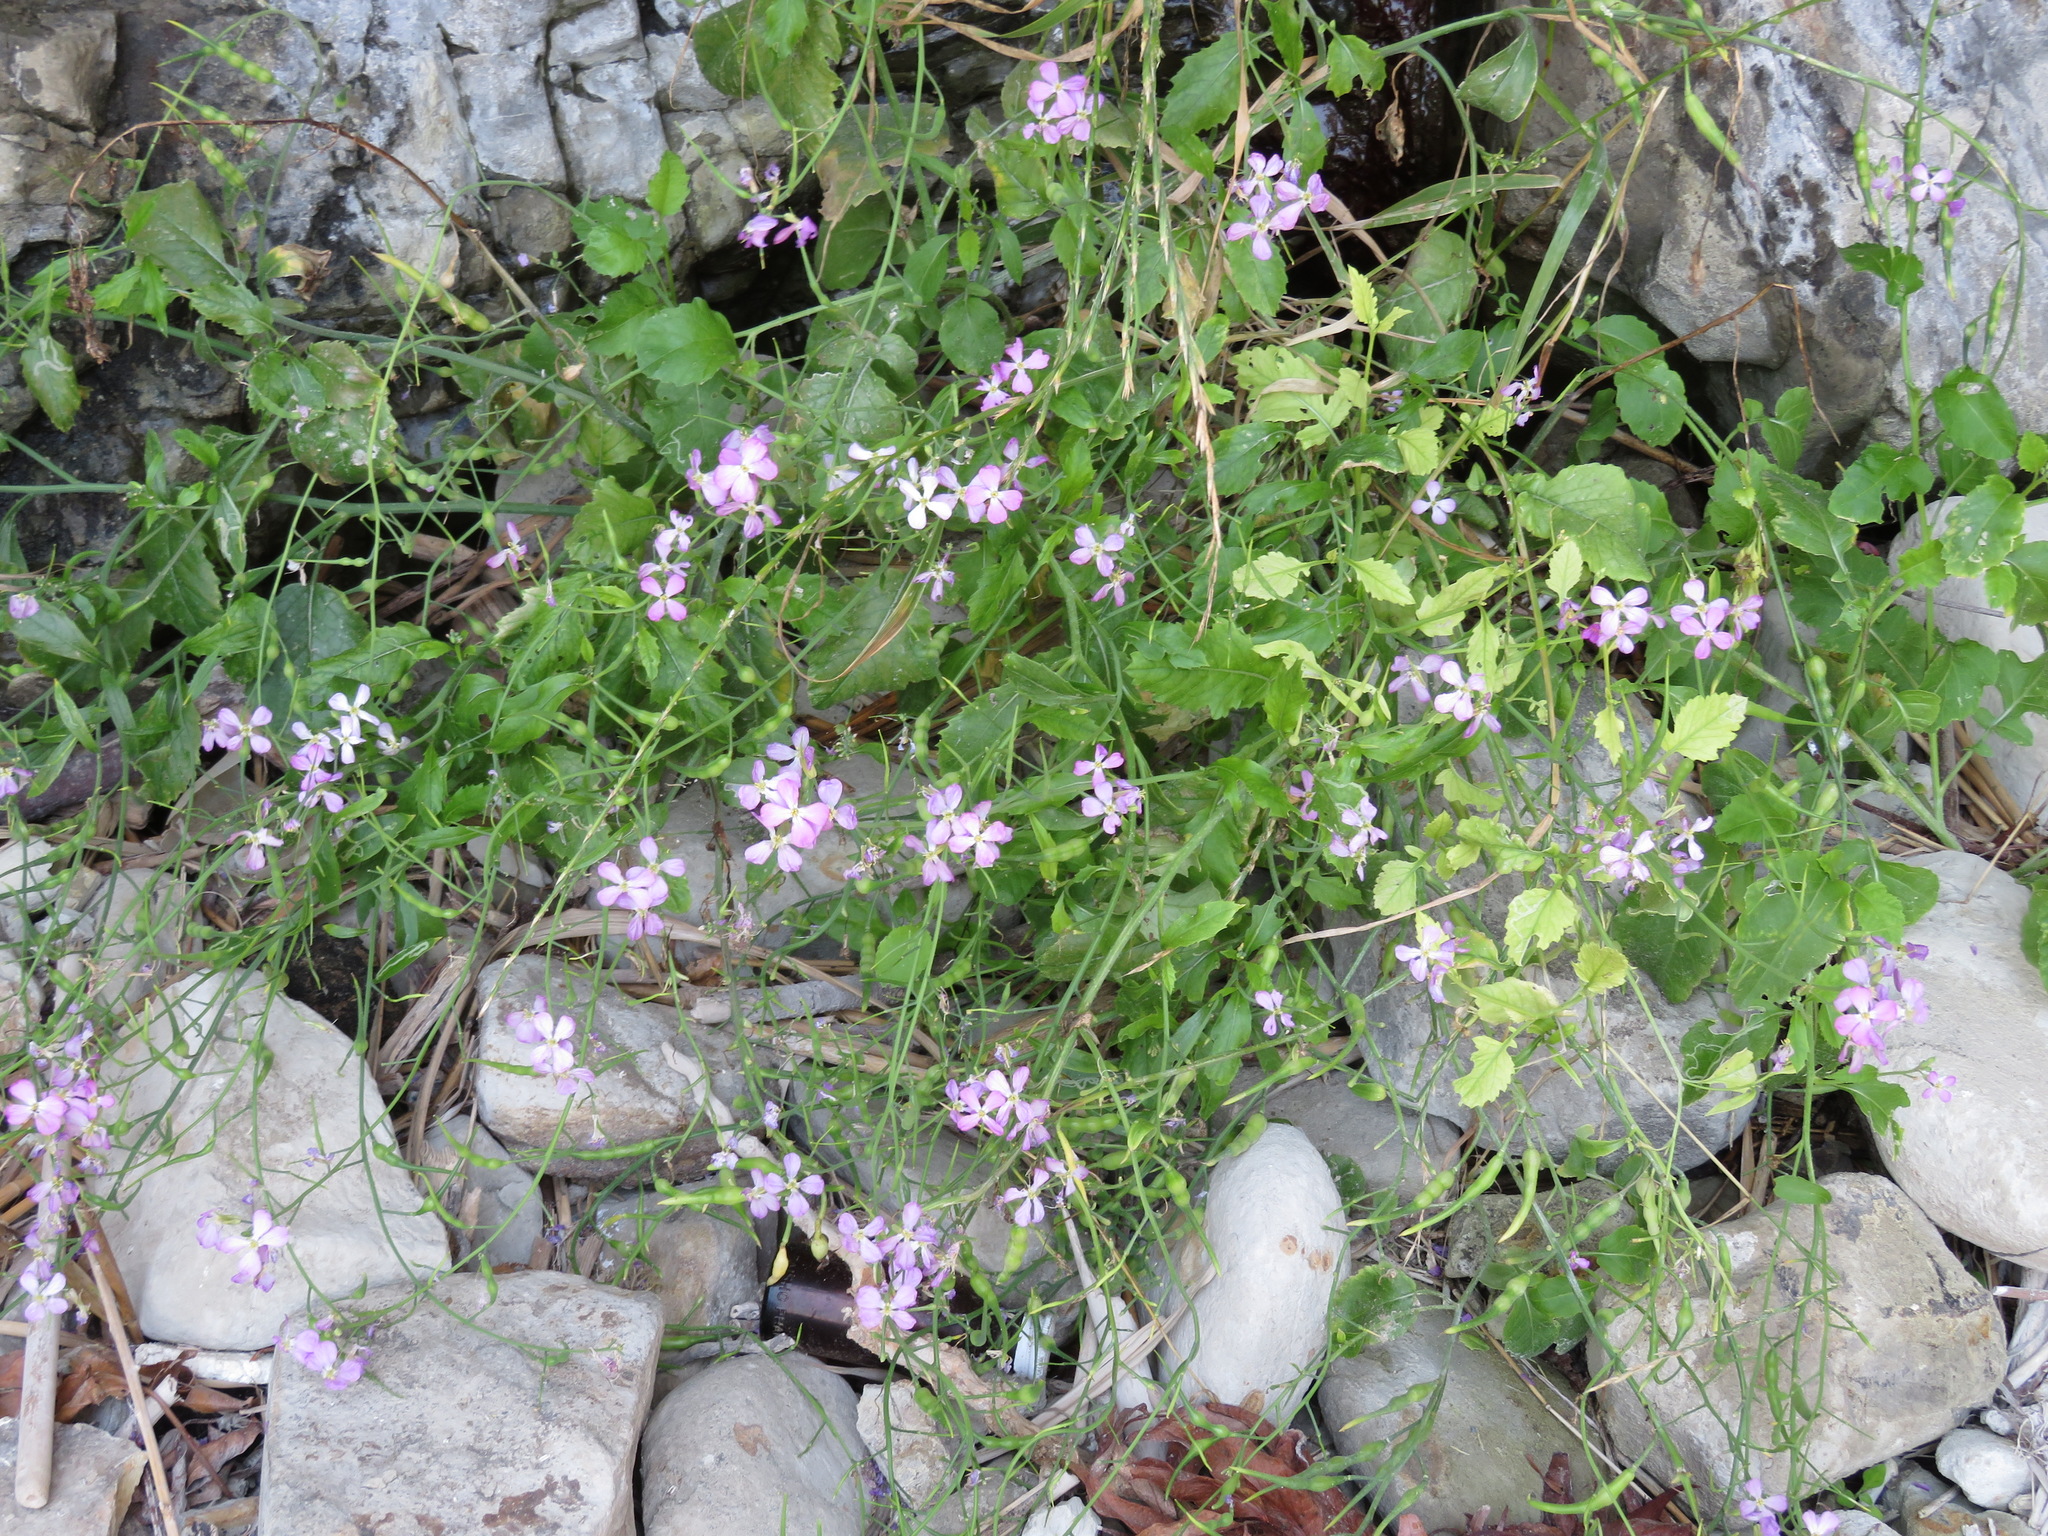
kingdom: Plantae
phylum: Tracheophyta
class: Magnoliopsida
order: Brassicales
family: Brassicaceae
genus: Raphanus
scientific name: Raphanus sativus
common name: Cultivated radish
